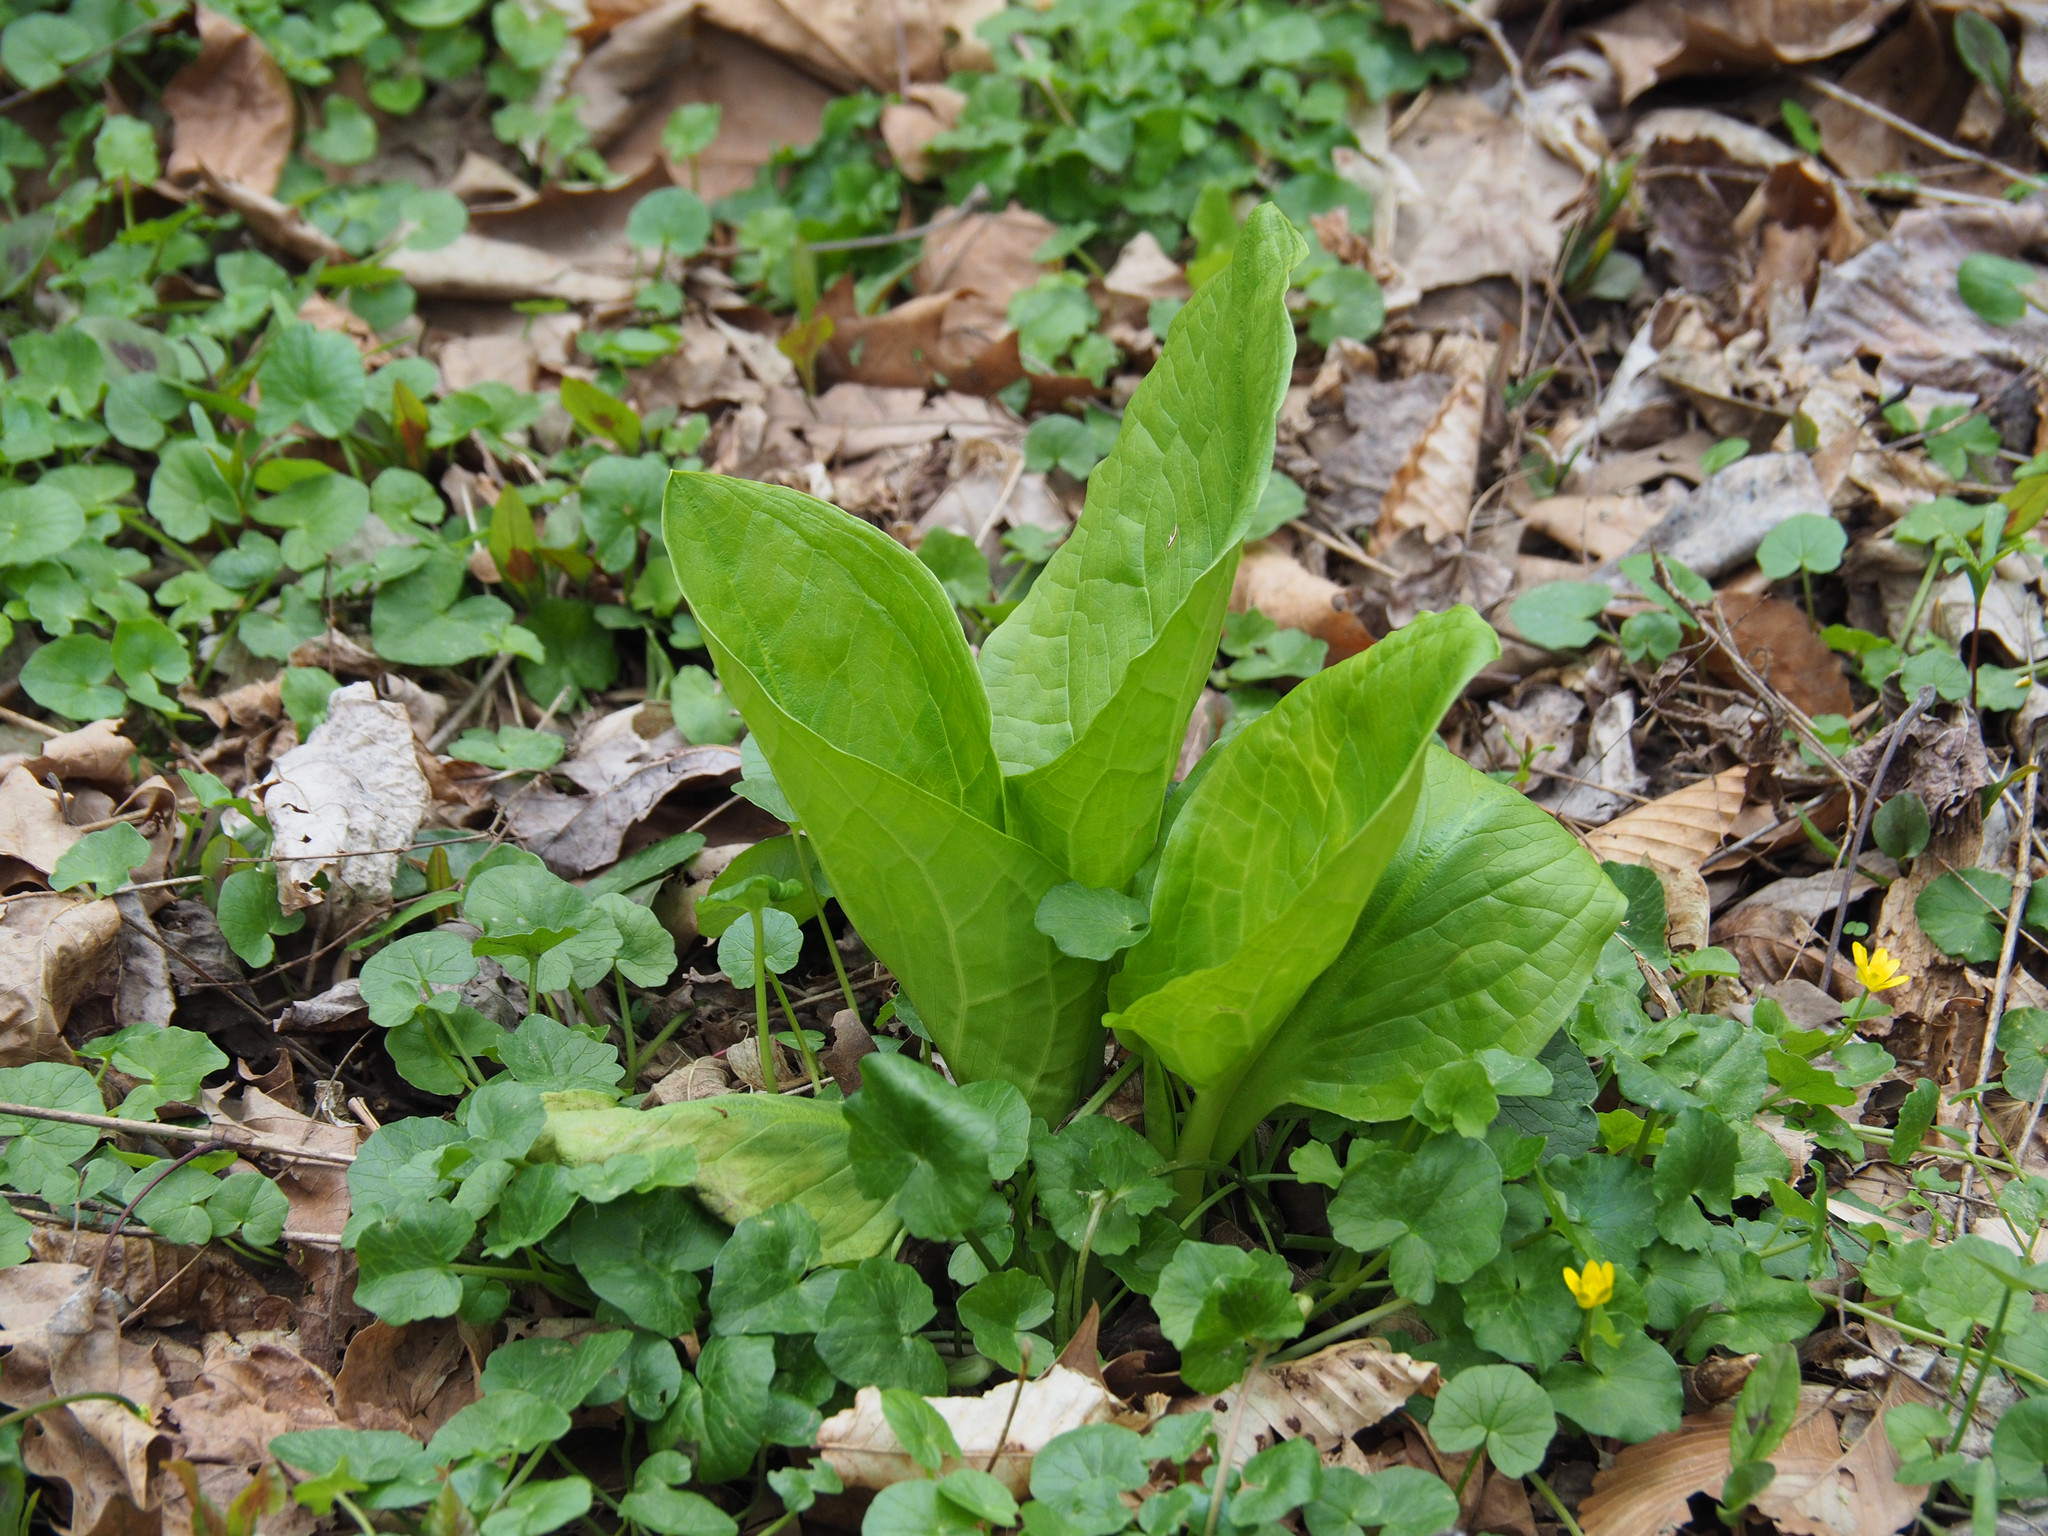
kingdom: Plantae
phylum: Tracheophyta
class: Liliopsida
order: Alismatales
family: Araceae
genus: Symplocarpus
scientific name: Symplocarpus foetidus
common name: Eastern skunk cabbage
